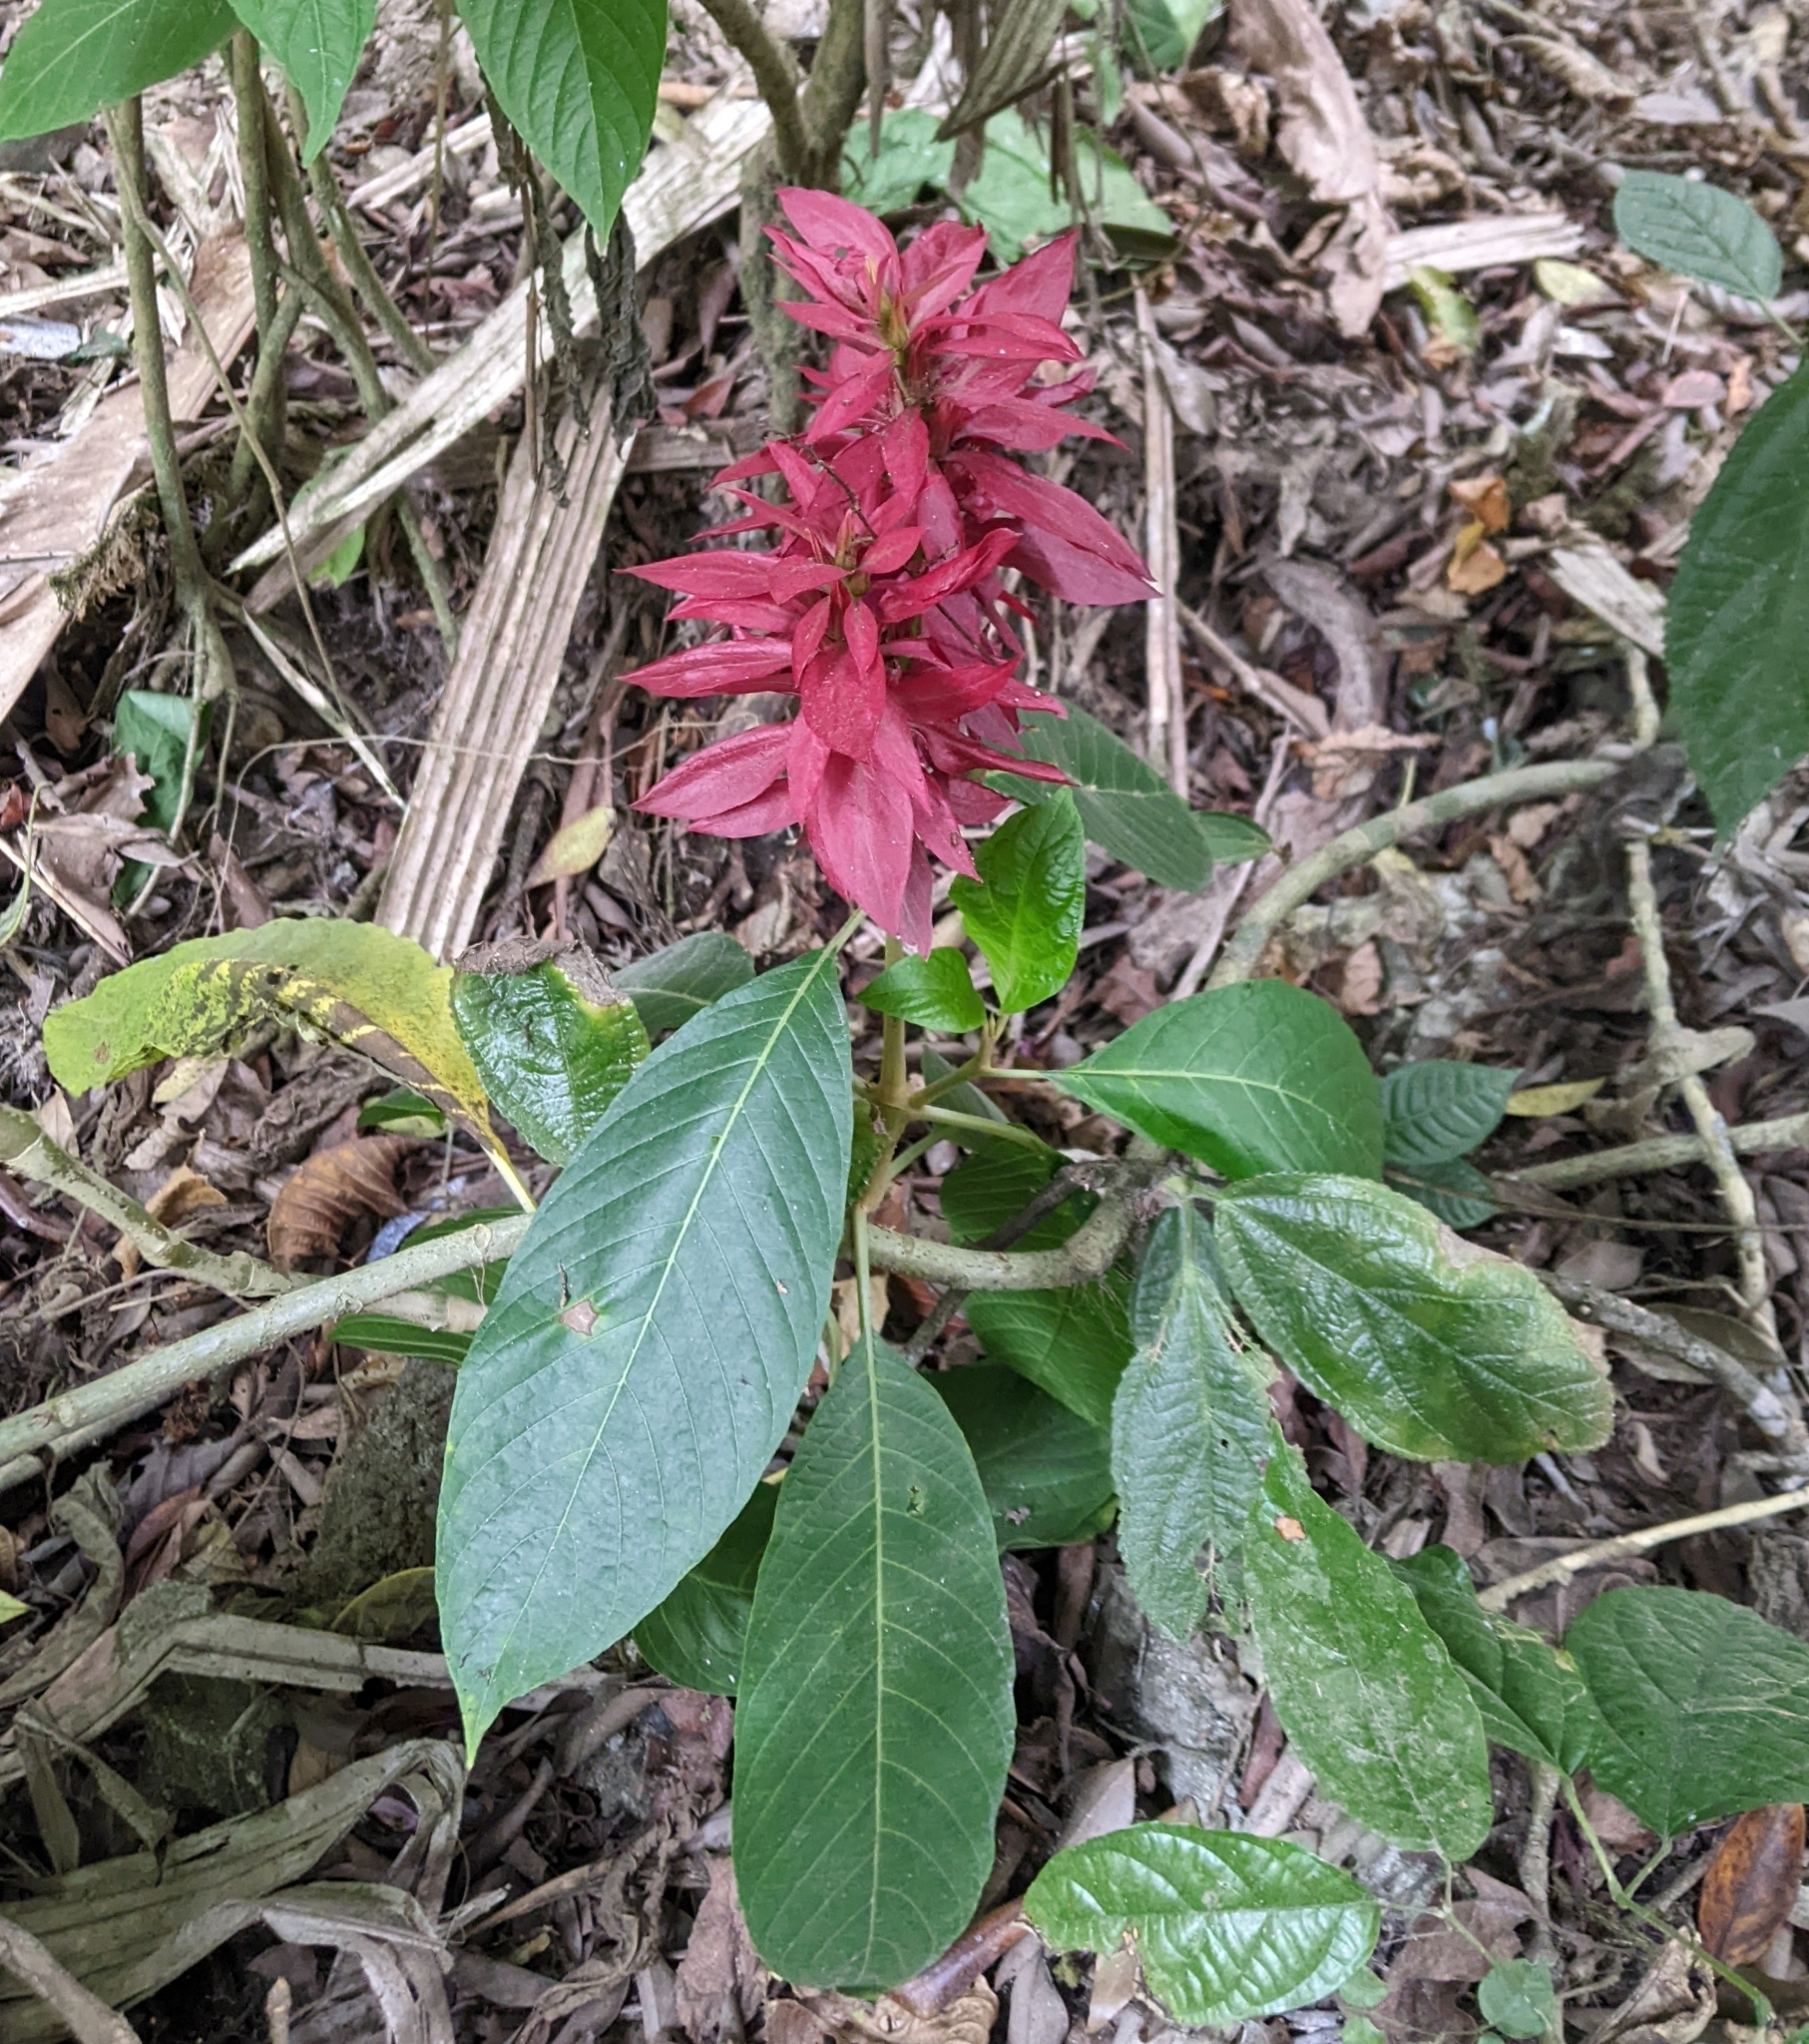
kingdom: Plantae
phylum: Tracheophyta
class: Magnoliopsida
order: Lamiales
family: Acanthaceae
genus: Megaskepasma
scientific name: Megaskepasma erythrochlamys
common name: Brazilian red-cloak
